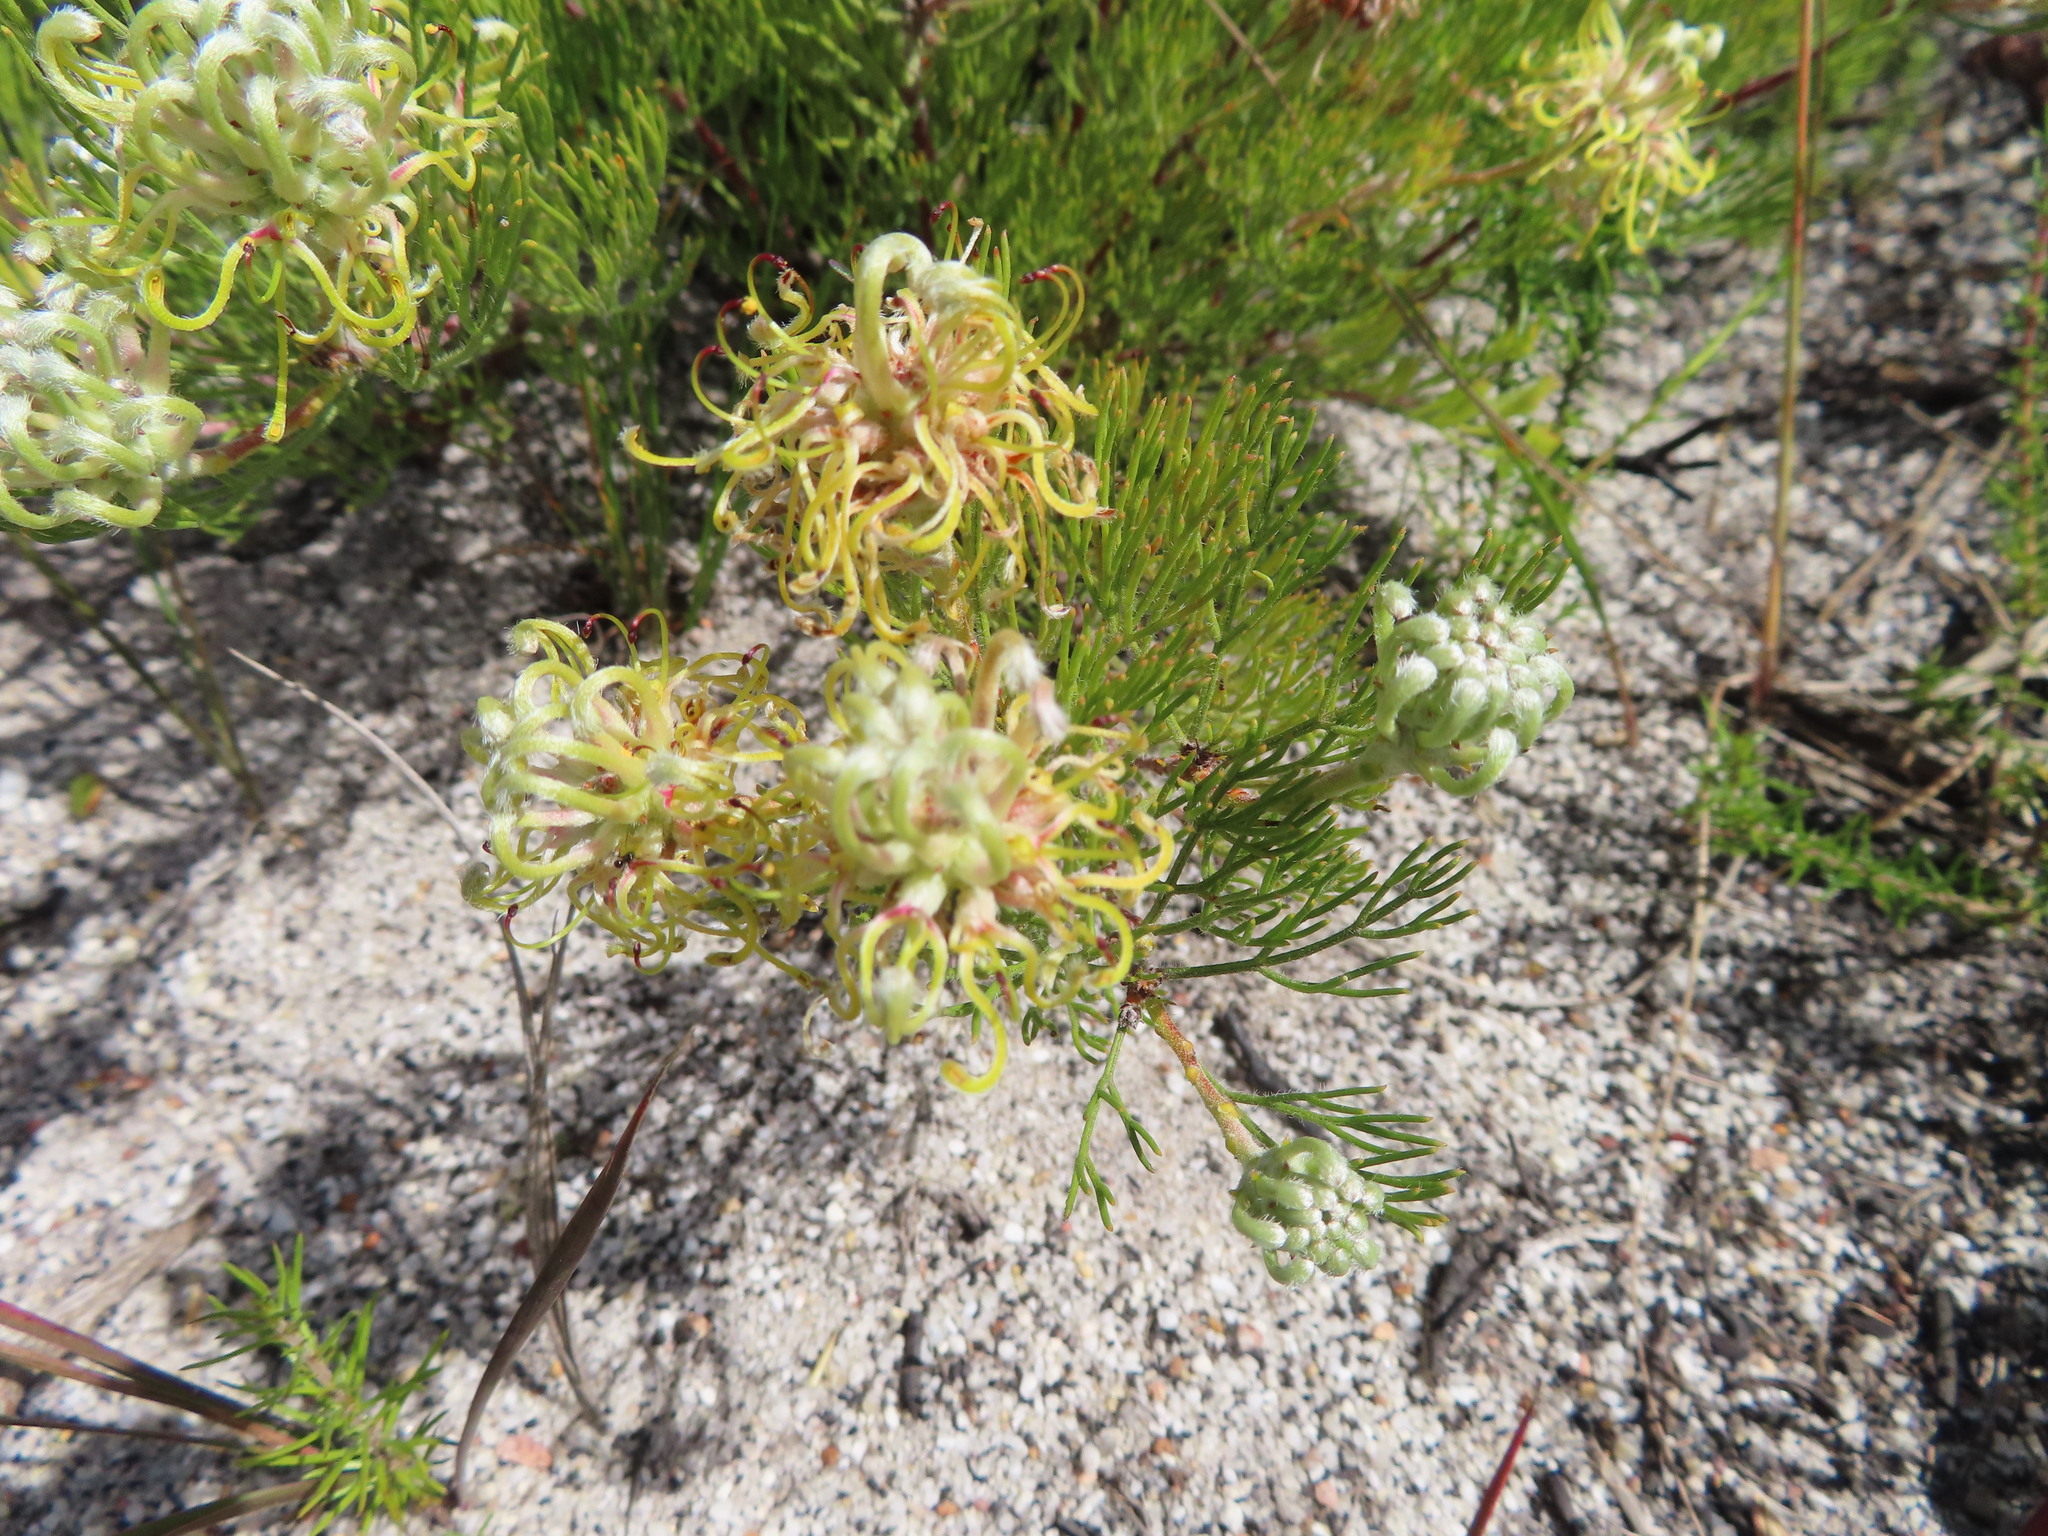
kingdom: Plantae
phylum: Tracheophyta
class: Magnoliopsida
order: Proteales
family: Proteaceae
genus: Serruria
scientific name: Serruria
